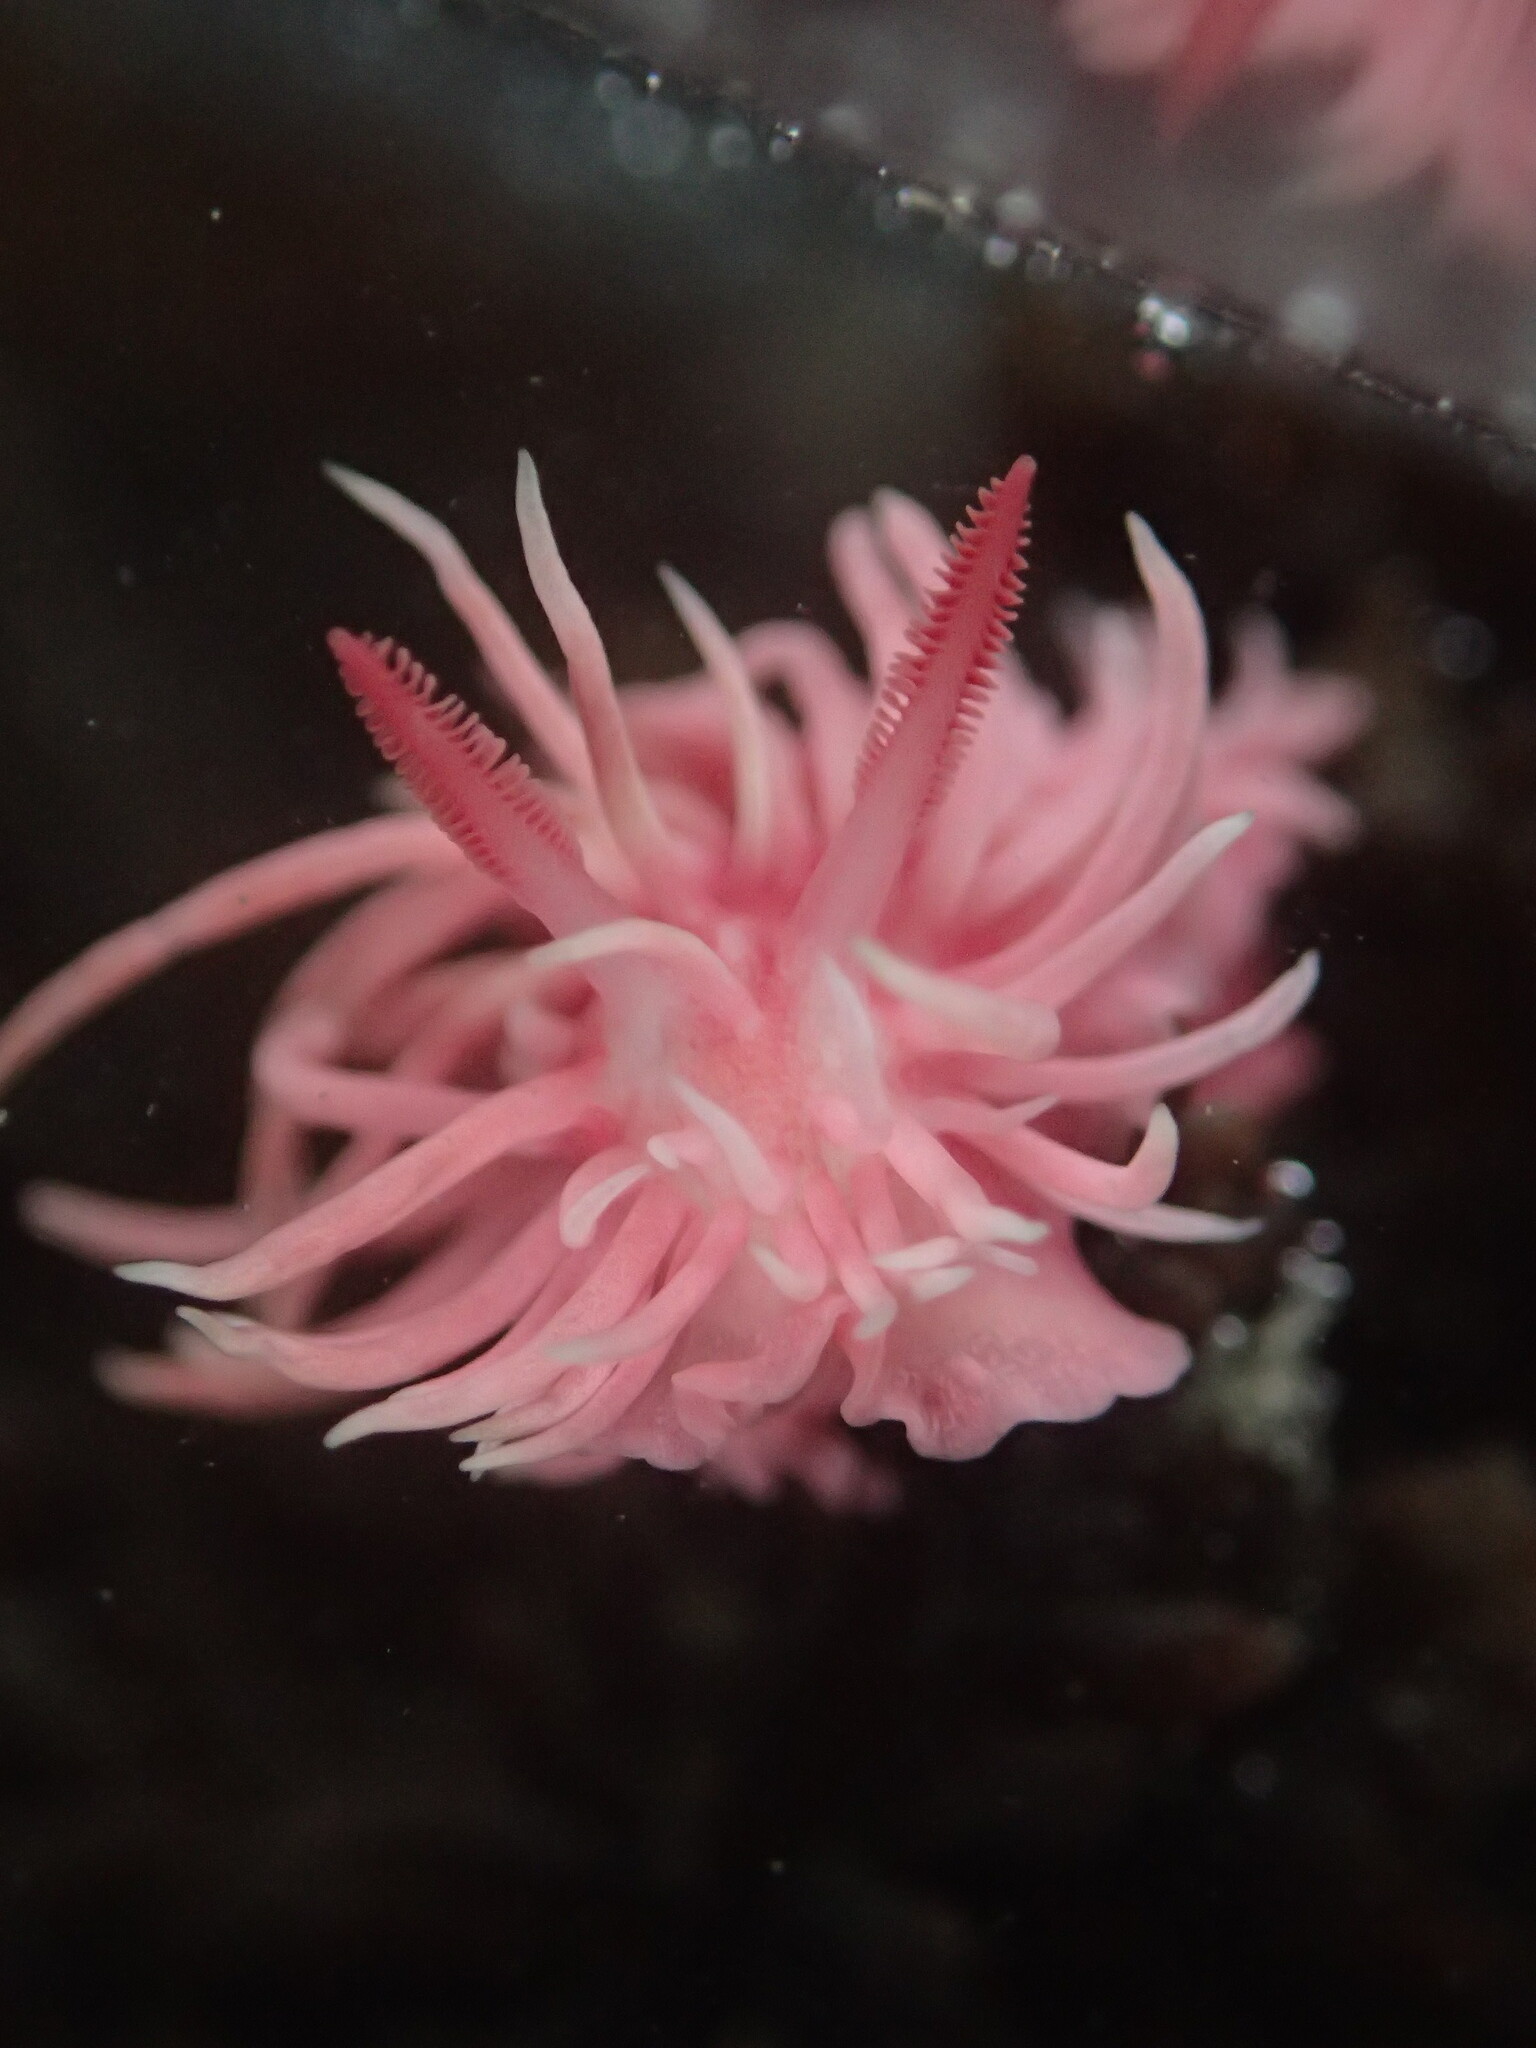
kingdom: Animalia
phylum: Mollusca
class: Gastropoda
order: Nudibranchia
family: Goniodorididae
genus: Okenia
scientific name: Okenia
